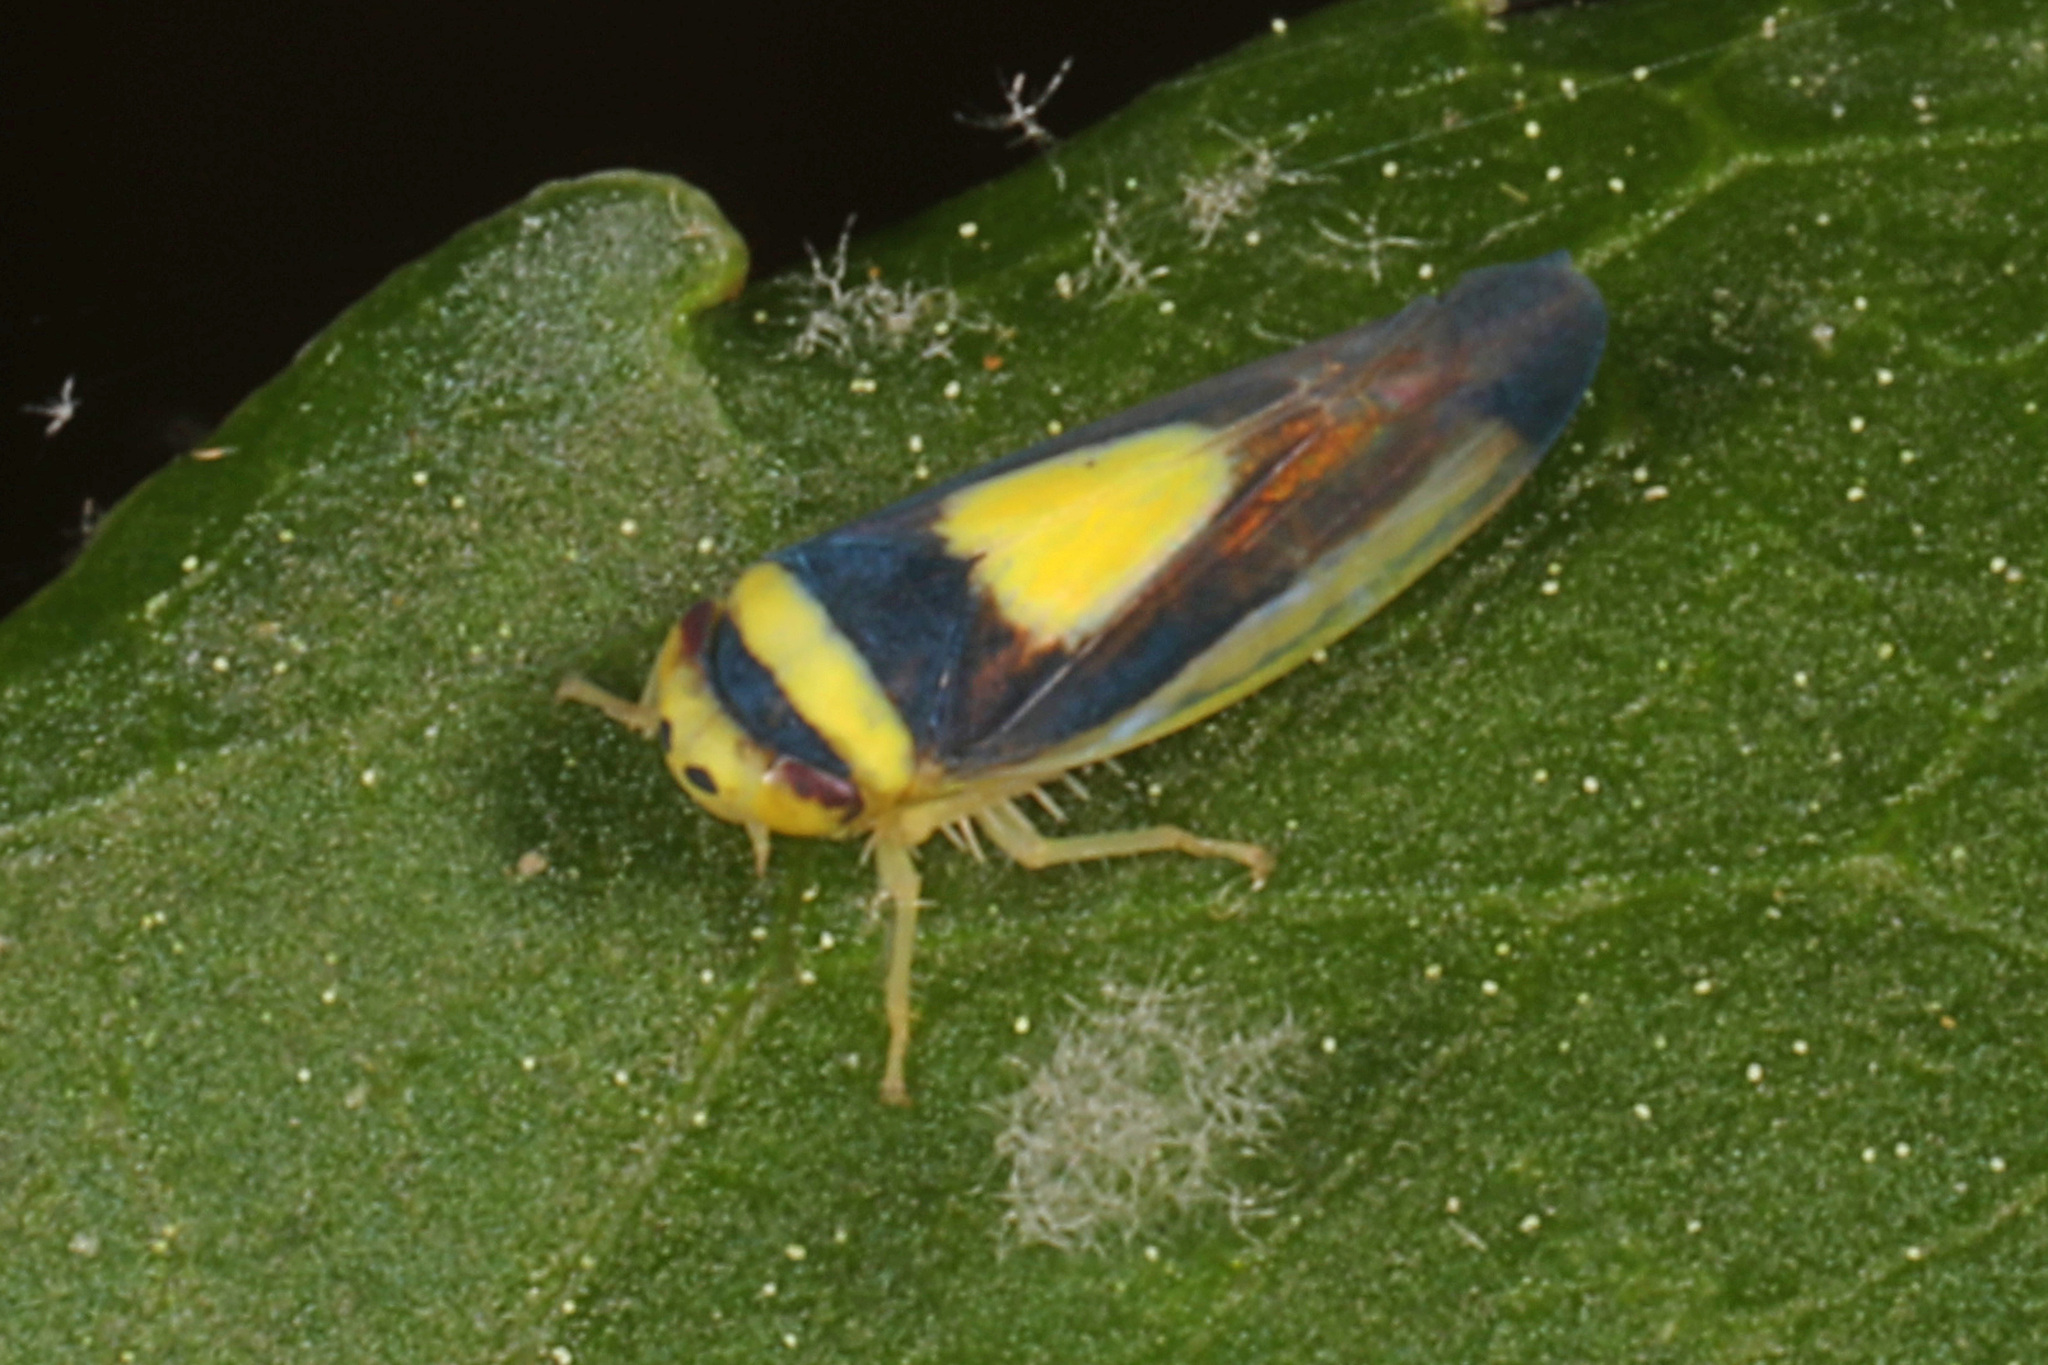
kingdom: Animalia
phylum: Arthropoda
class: Insecta
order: Hemiptera
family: Cicadellidae
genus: Colladonus
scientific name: Colladonus clitellarius
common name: The saddleback leafhopper
